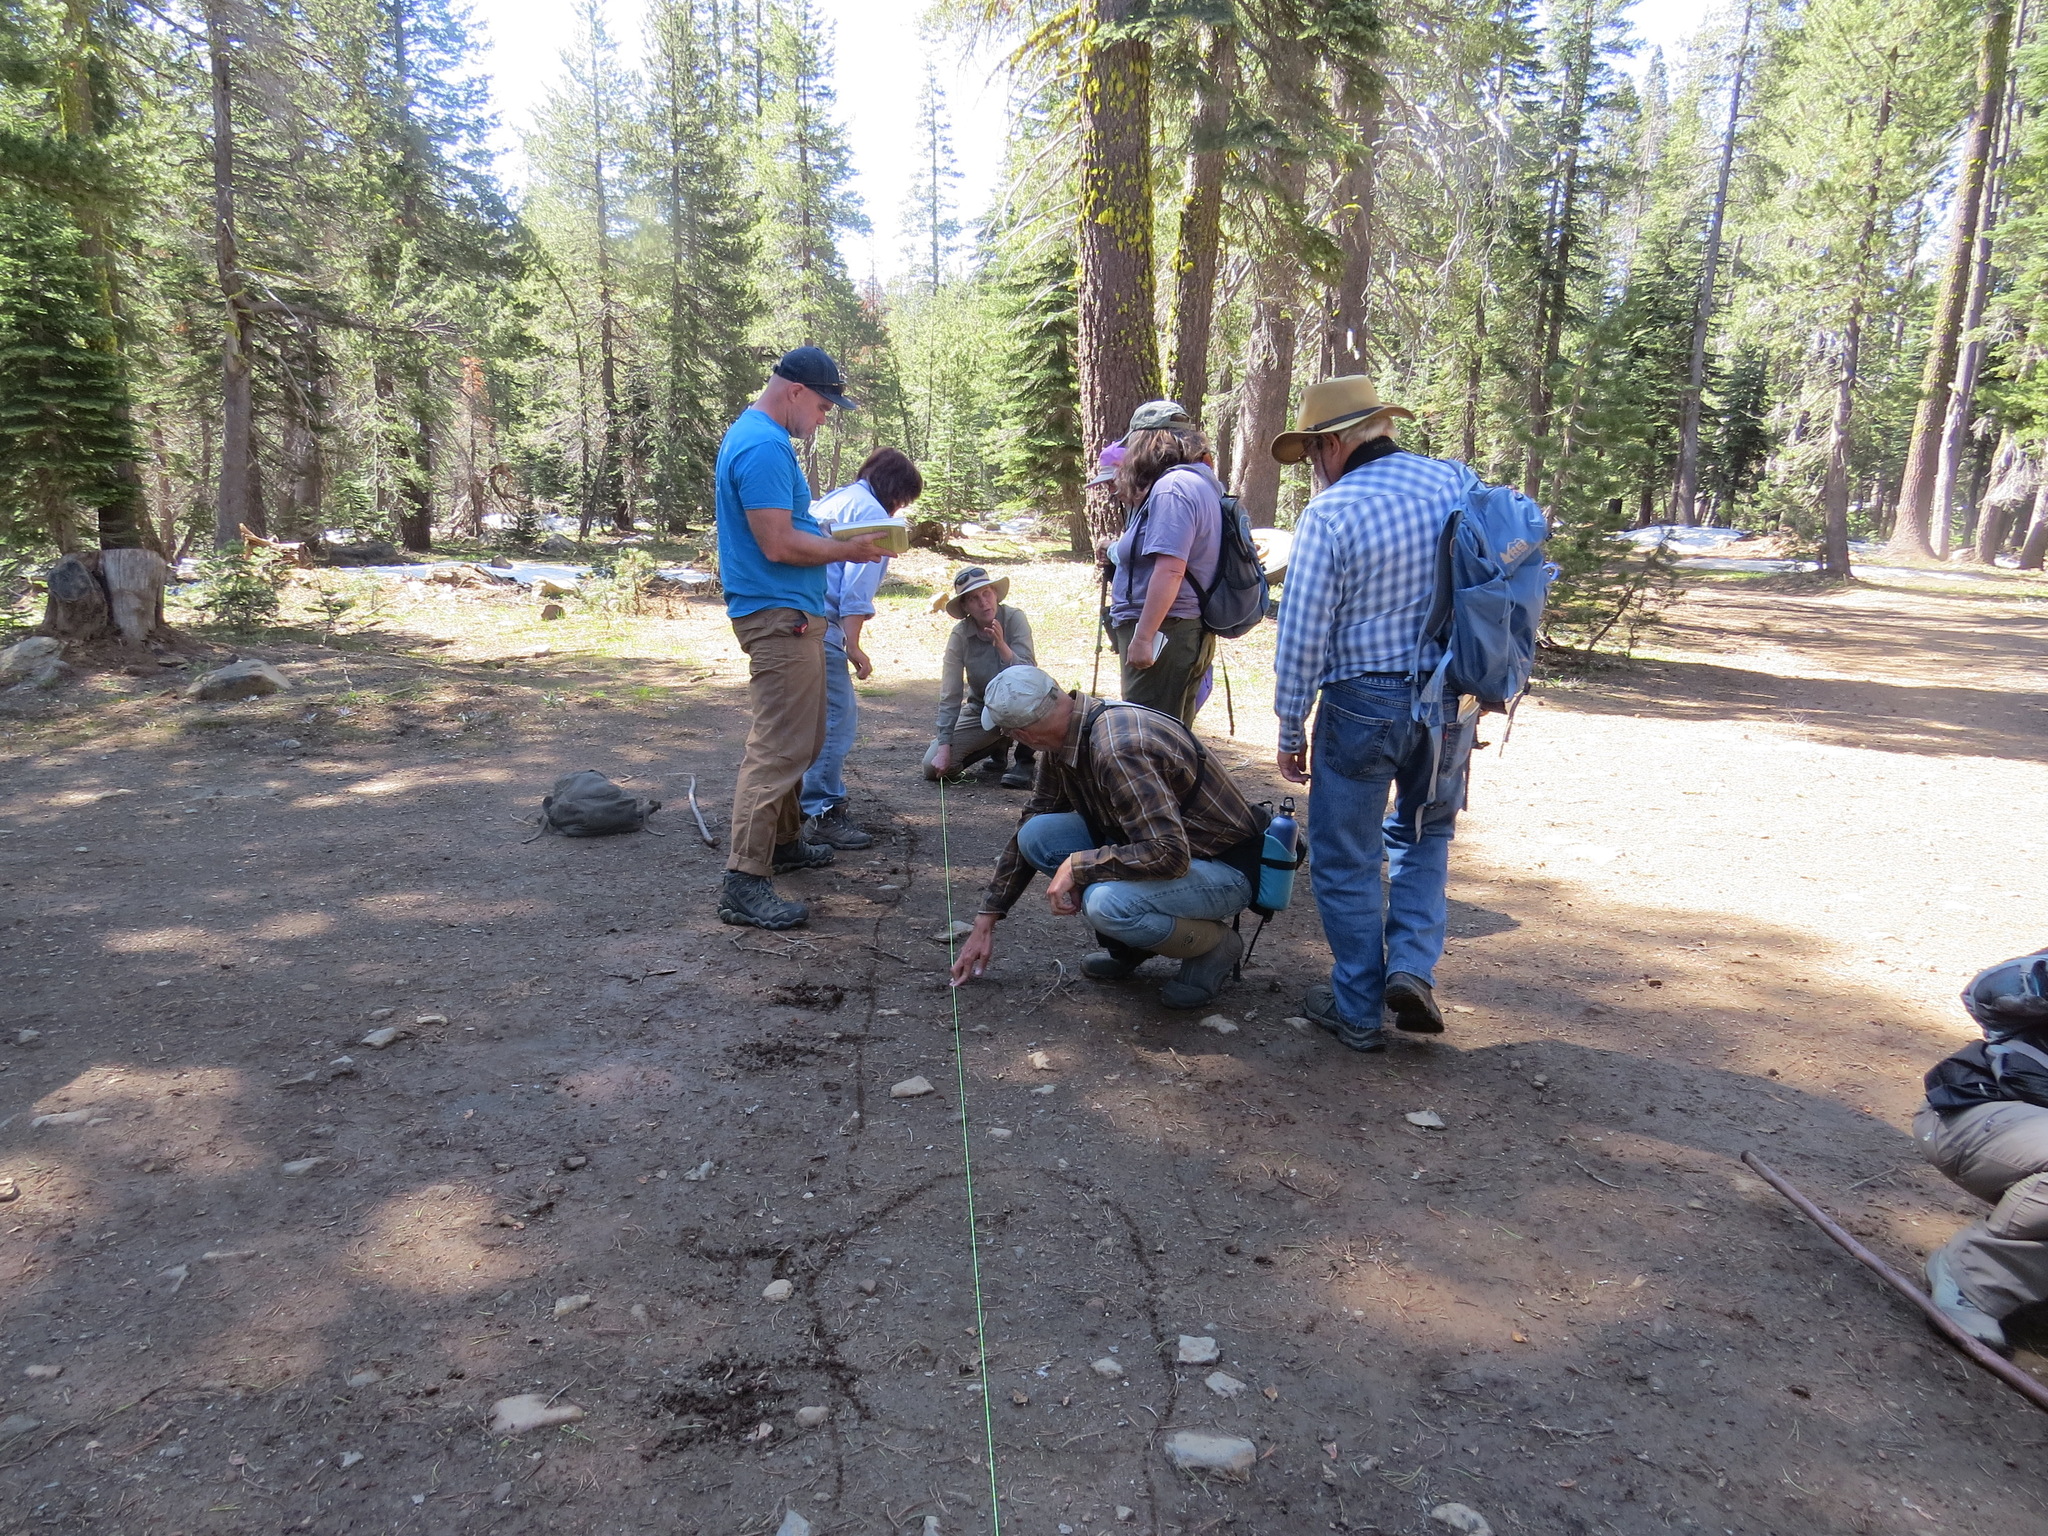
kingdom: Animalia
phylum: Chordata
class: Mammalia
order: Artiodactyla
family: Cervidae
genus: Odocoileus
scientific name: Odocoileus hemionus
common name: Mule deer
